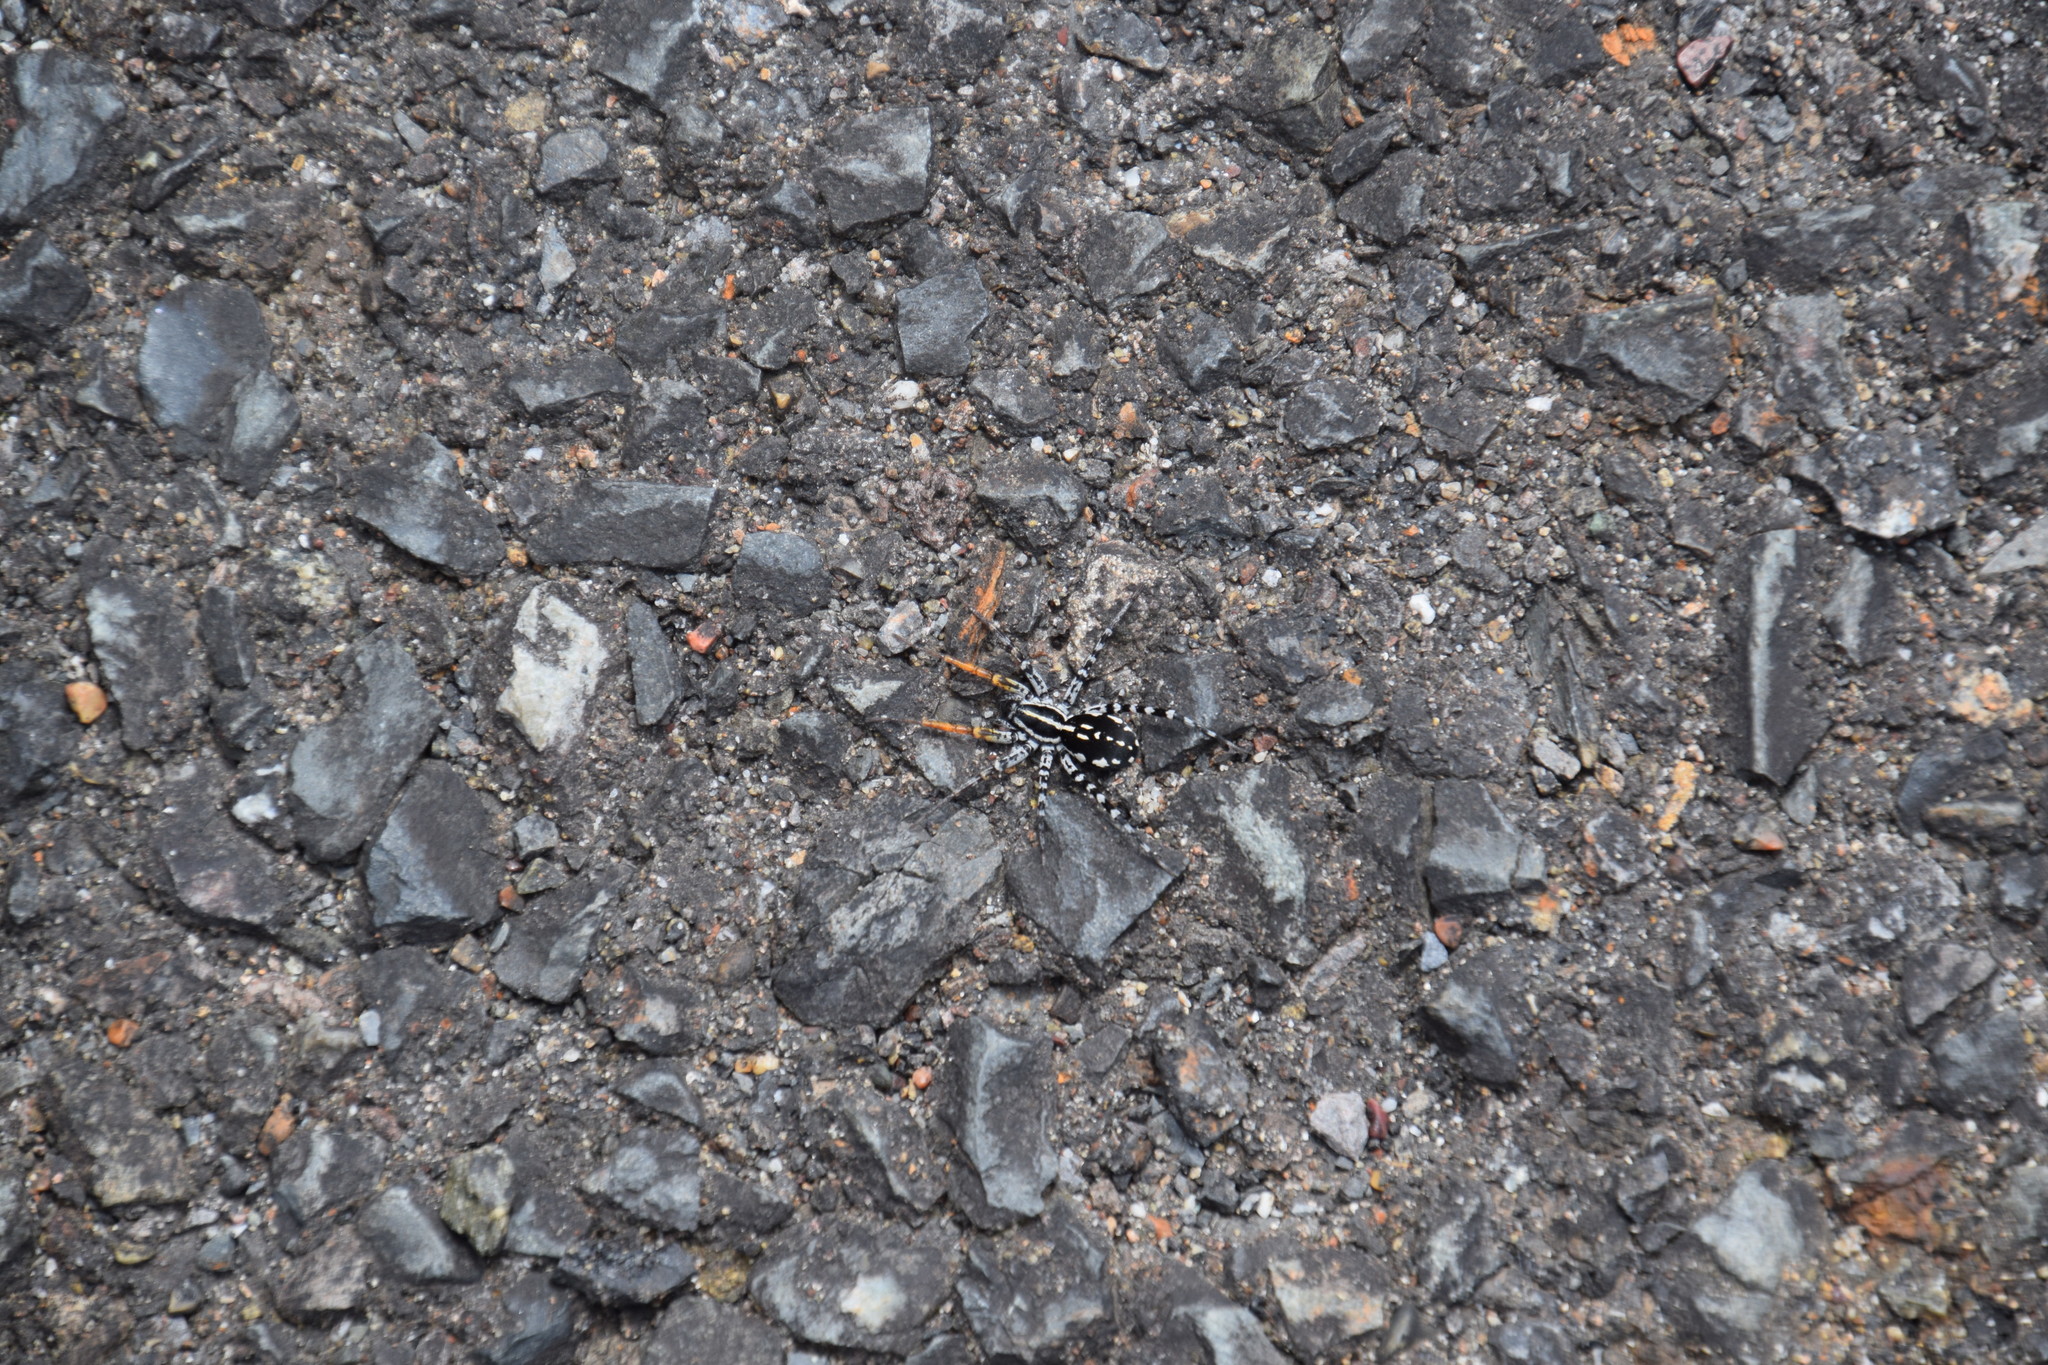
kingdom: Animalia
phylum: Arthropoda
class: Arachnida
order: Araneae
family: Corinnidae
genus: Nyssus
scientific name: Nyssus coloripes
